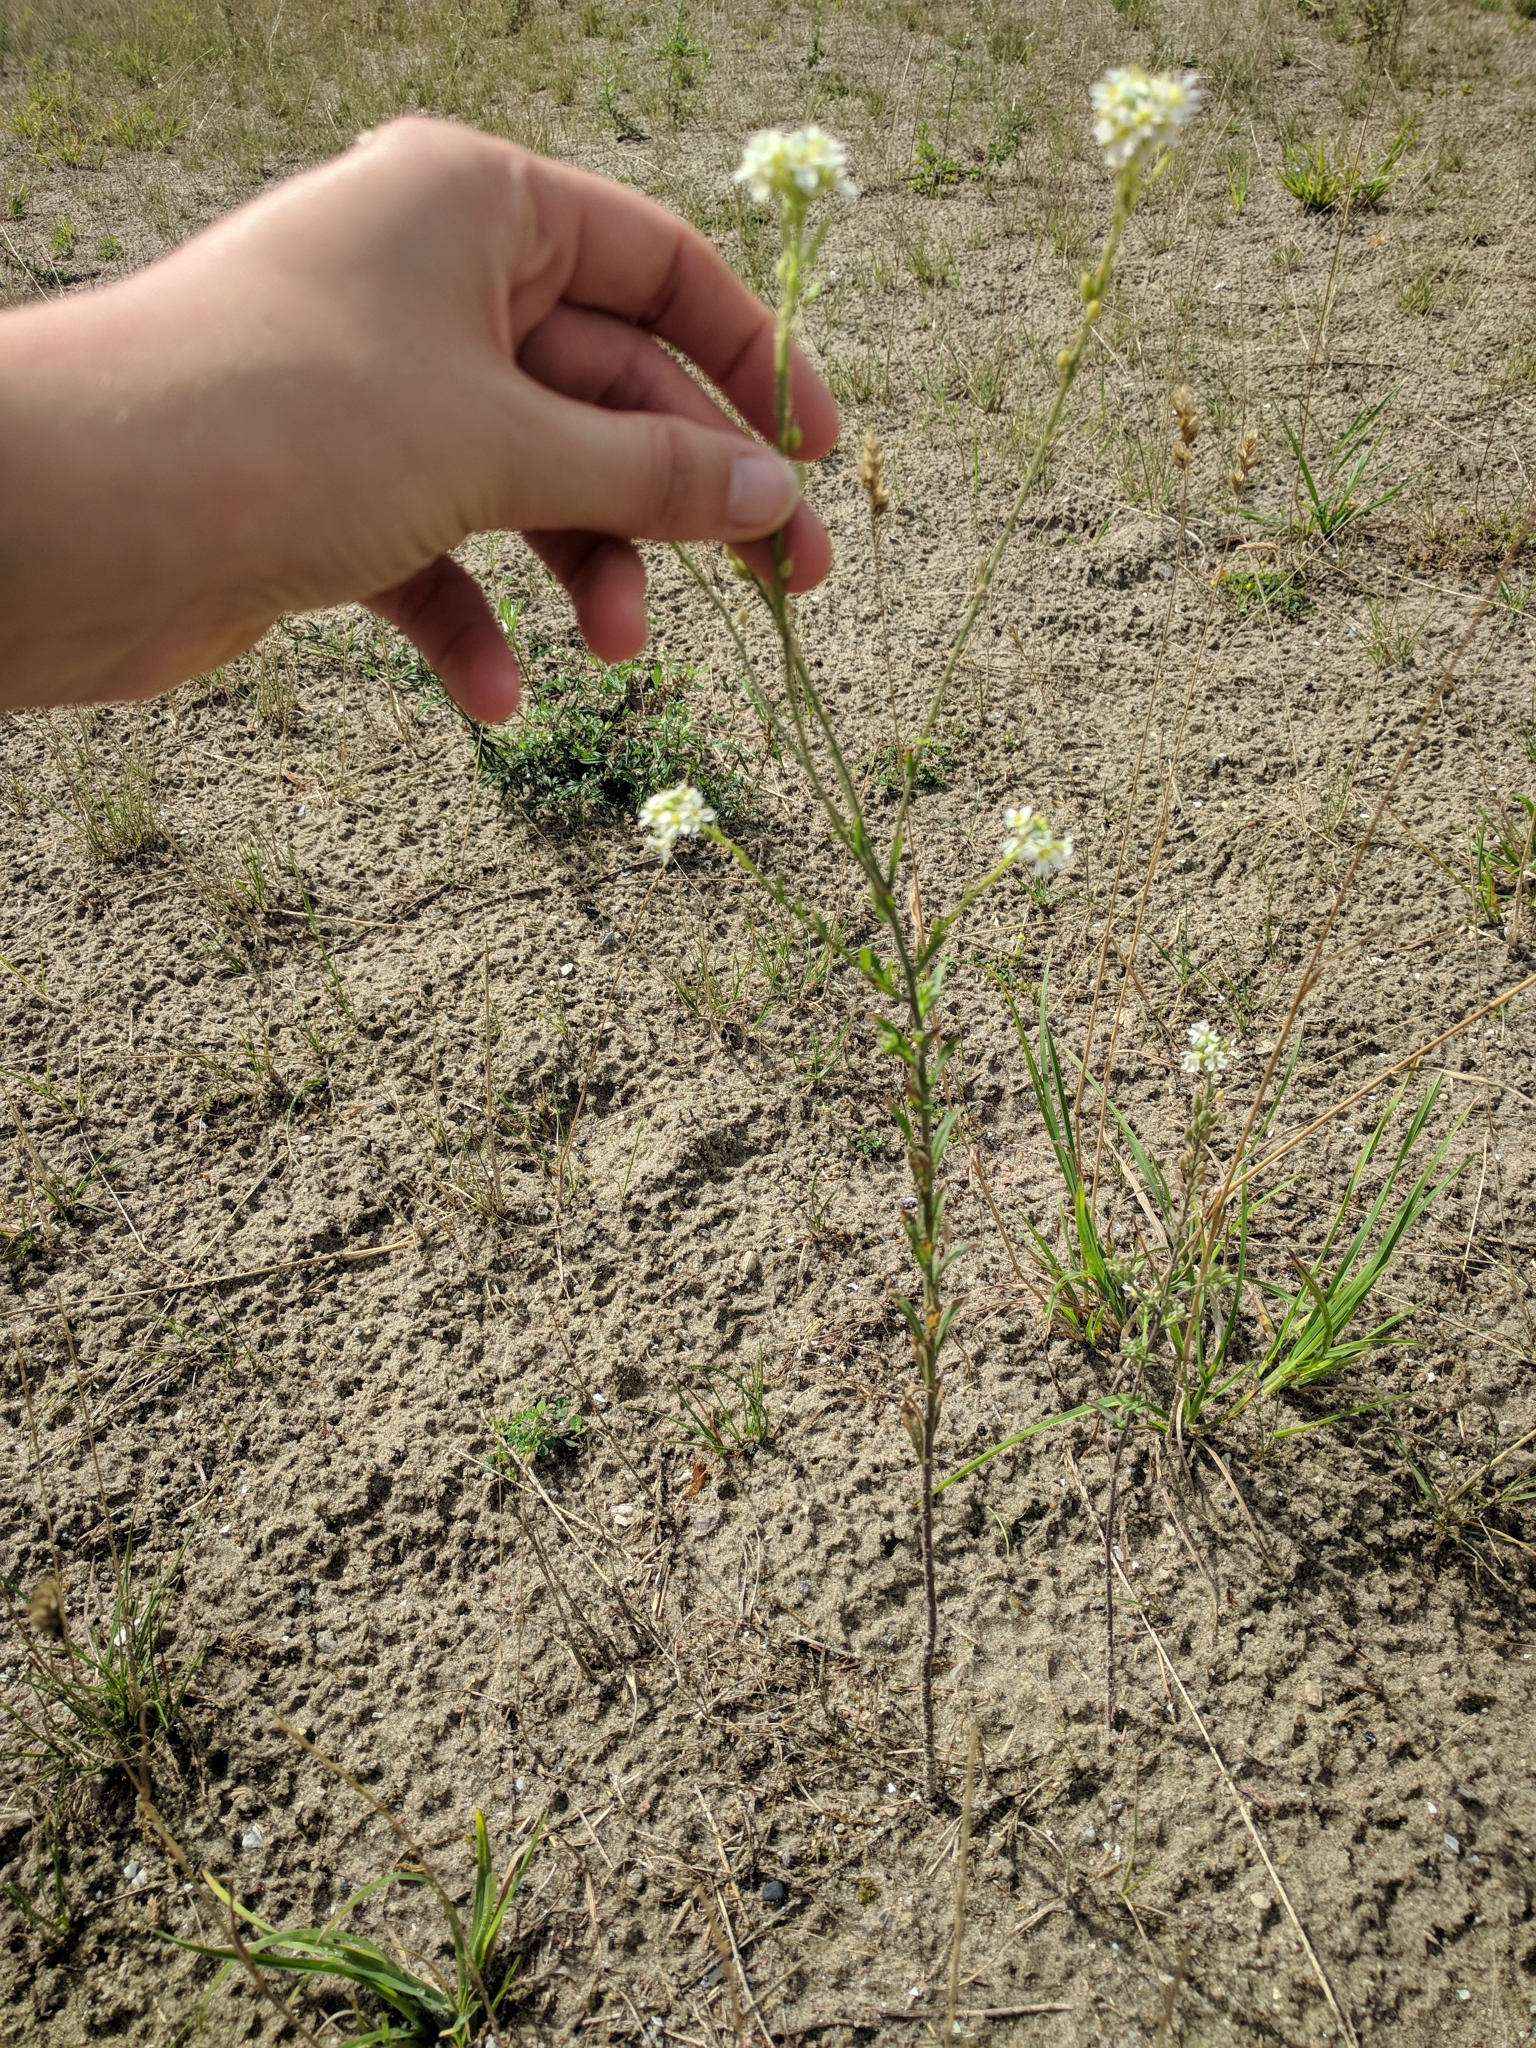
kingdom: Plantae
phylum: Tracheophyta
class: Magnoliopsida
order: Brassicales
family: Brassicaceae
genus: Berteroa
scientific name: Berteroa incana
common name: Hoary alison
